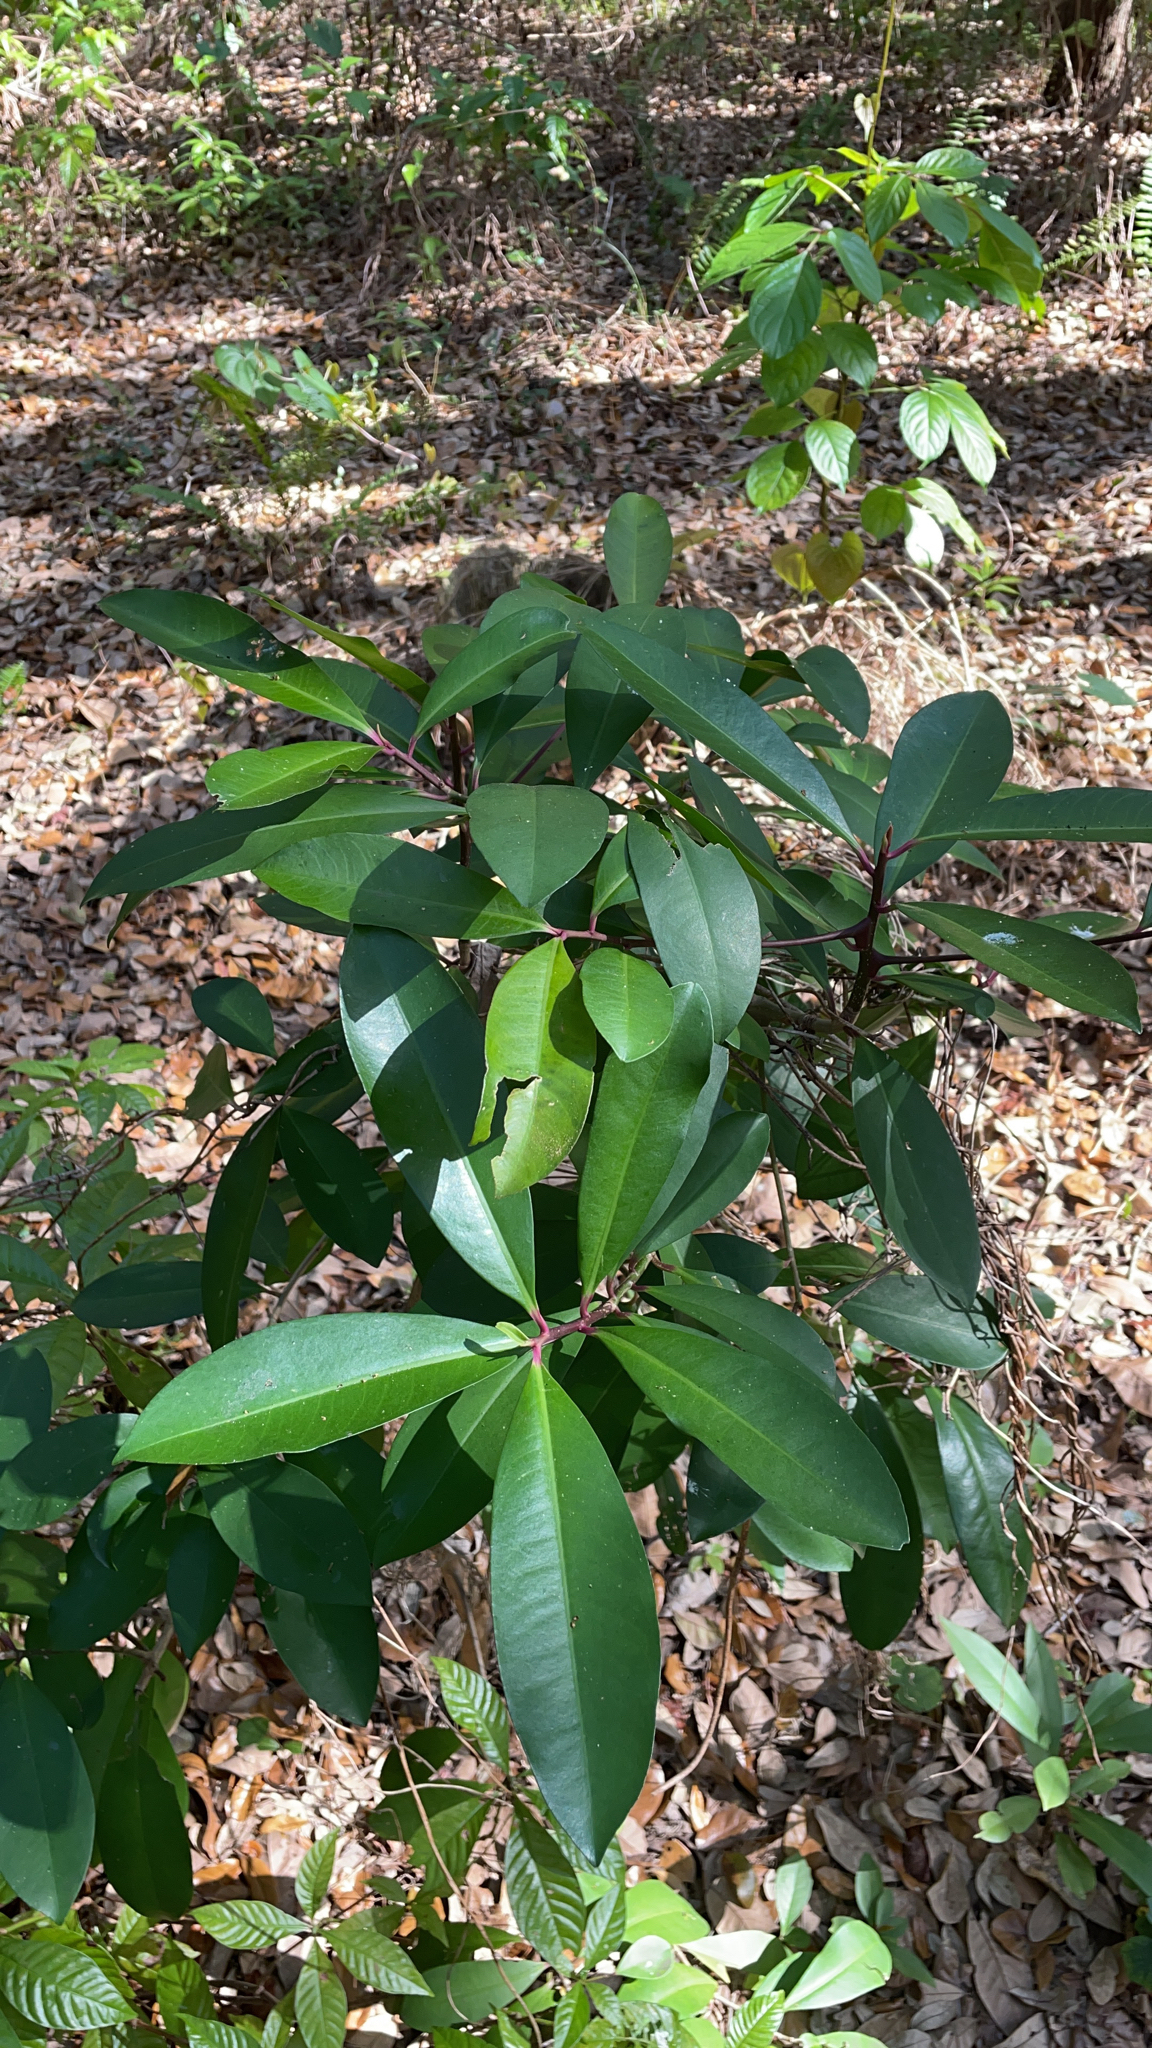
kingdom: Plantae
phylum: Tracheophyta
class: Magnoliopsida
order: Ericales
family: Primulaceae
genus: Ardisia
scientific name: Ardisia elliptica
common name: Shoebutton
